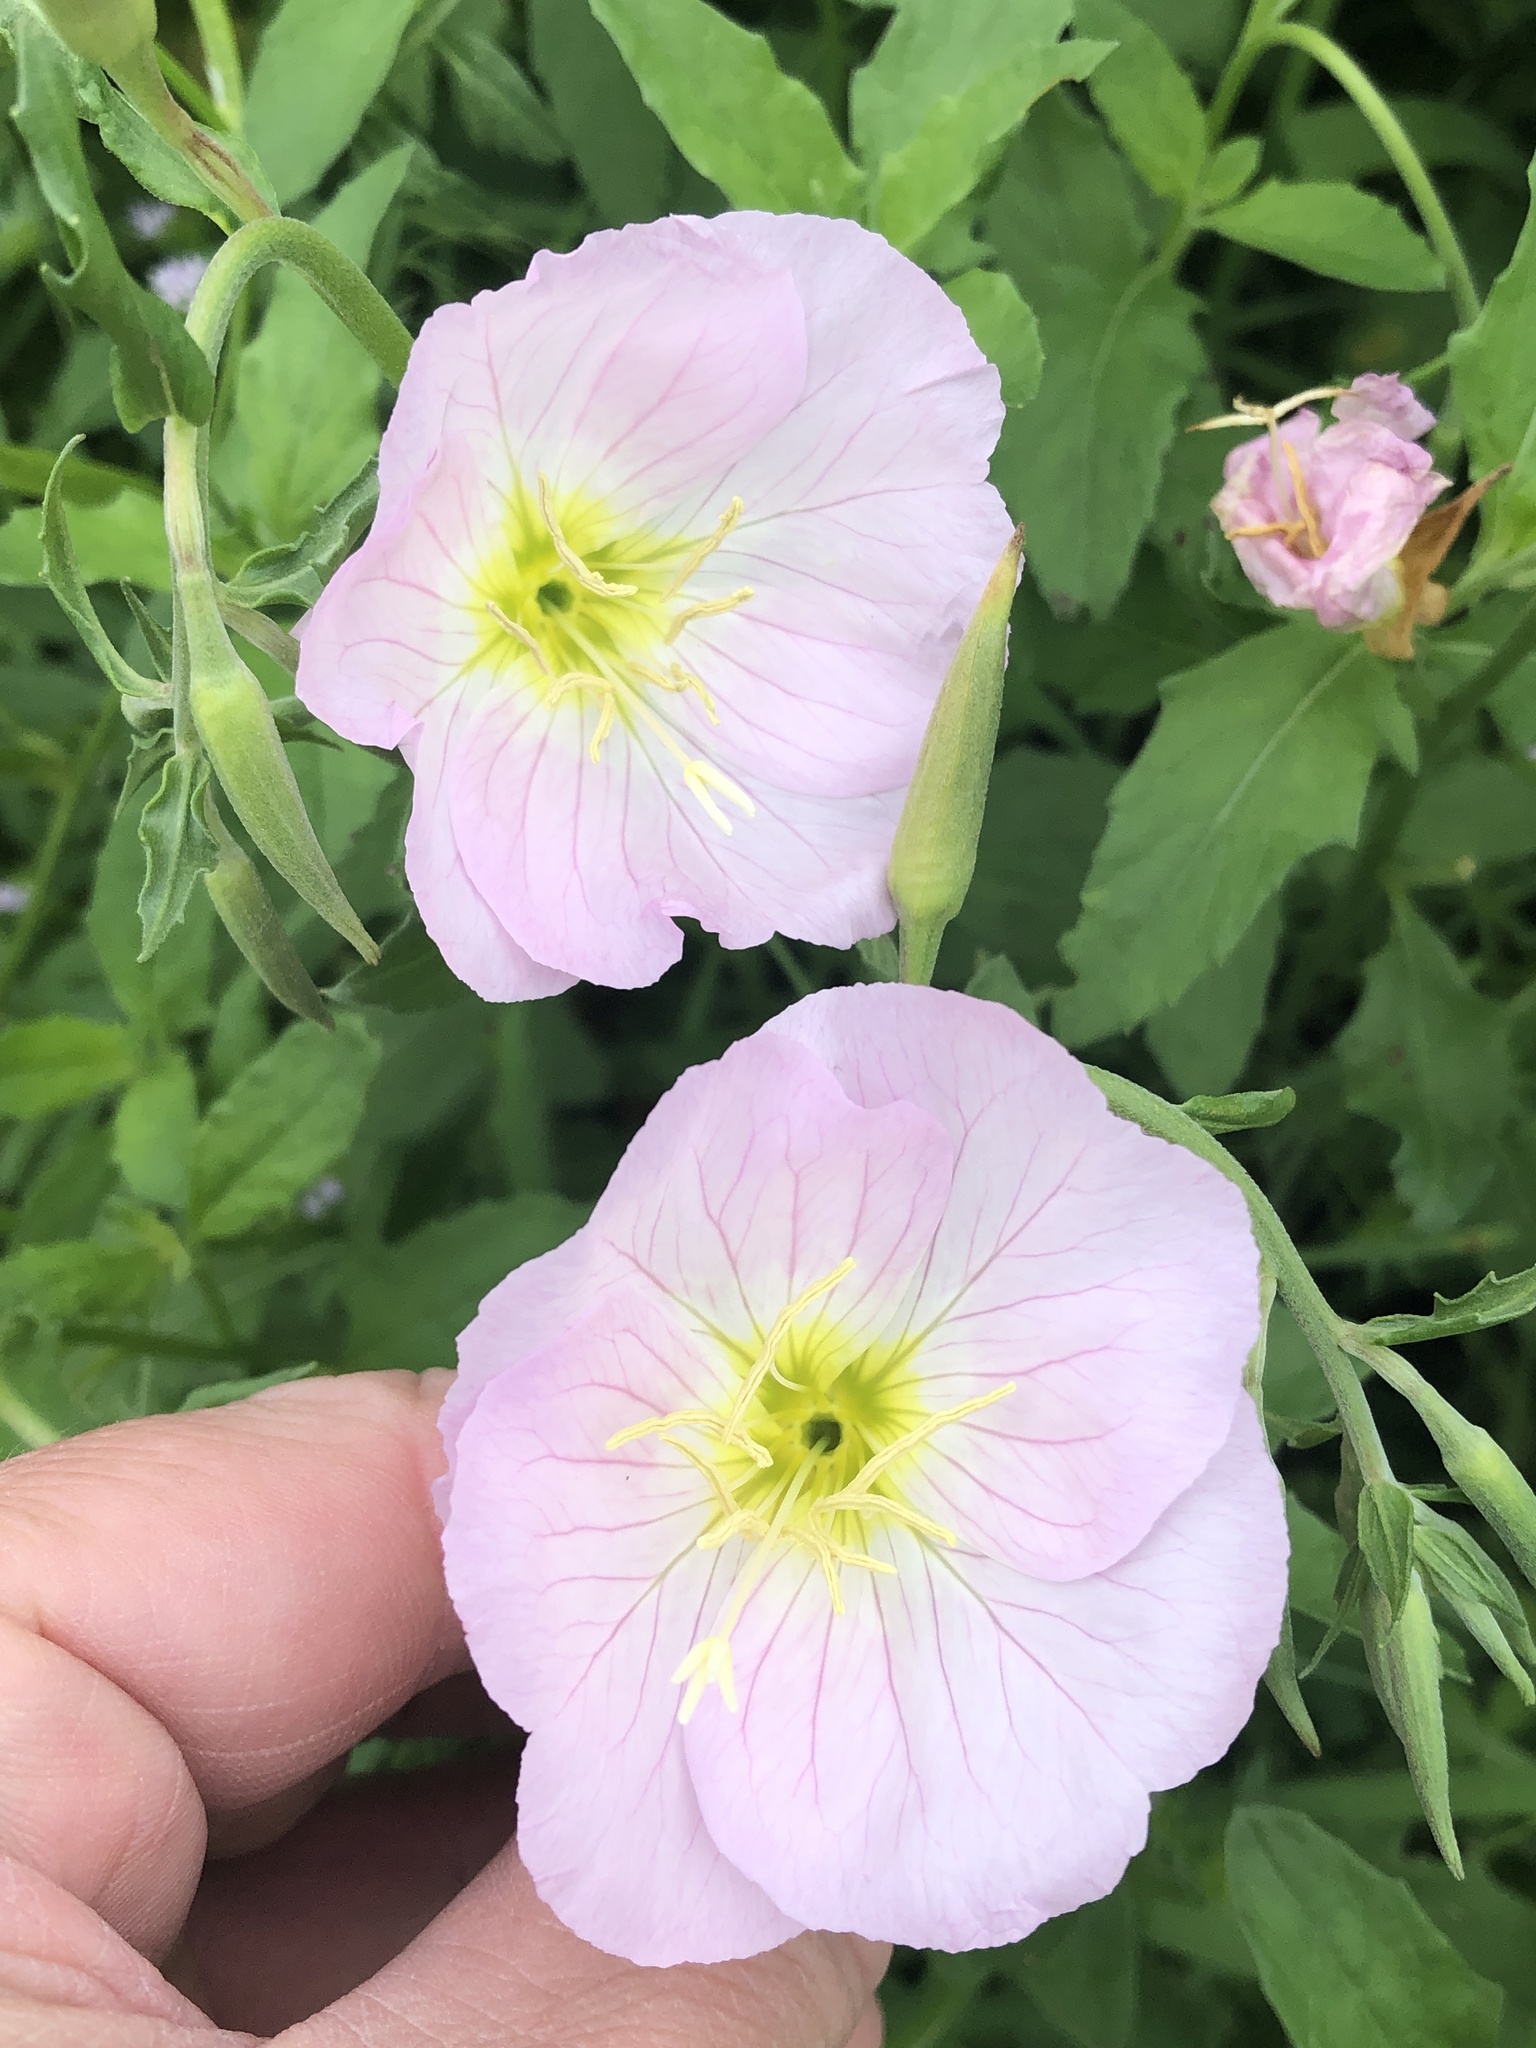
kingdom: Plantae
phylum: Tracheophyta
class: Magnoliopsida
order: Myrtales
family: Onagraceae
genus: Oenothera
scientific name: Oenothera speciosa
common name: White evening-primrose
